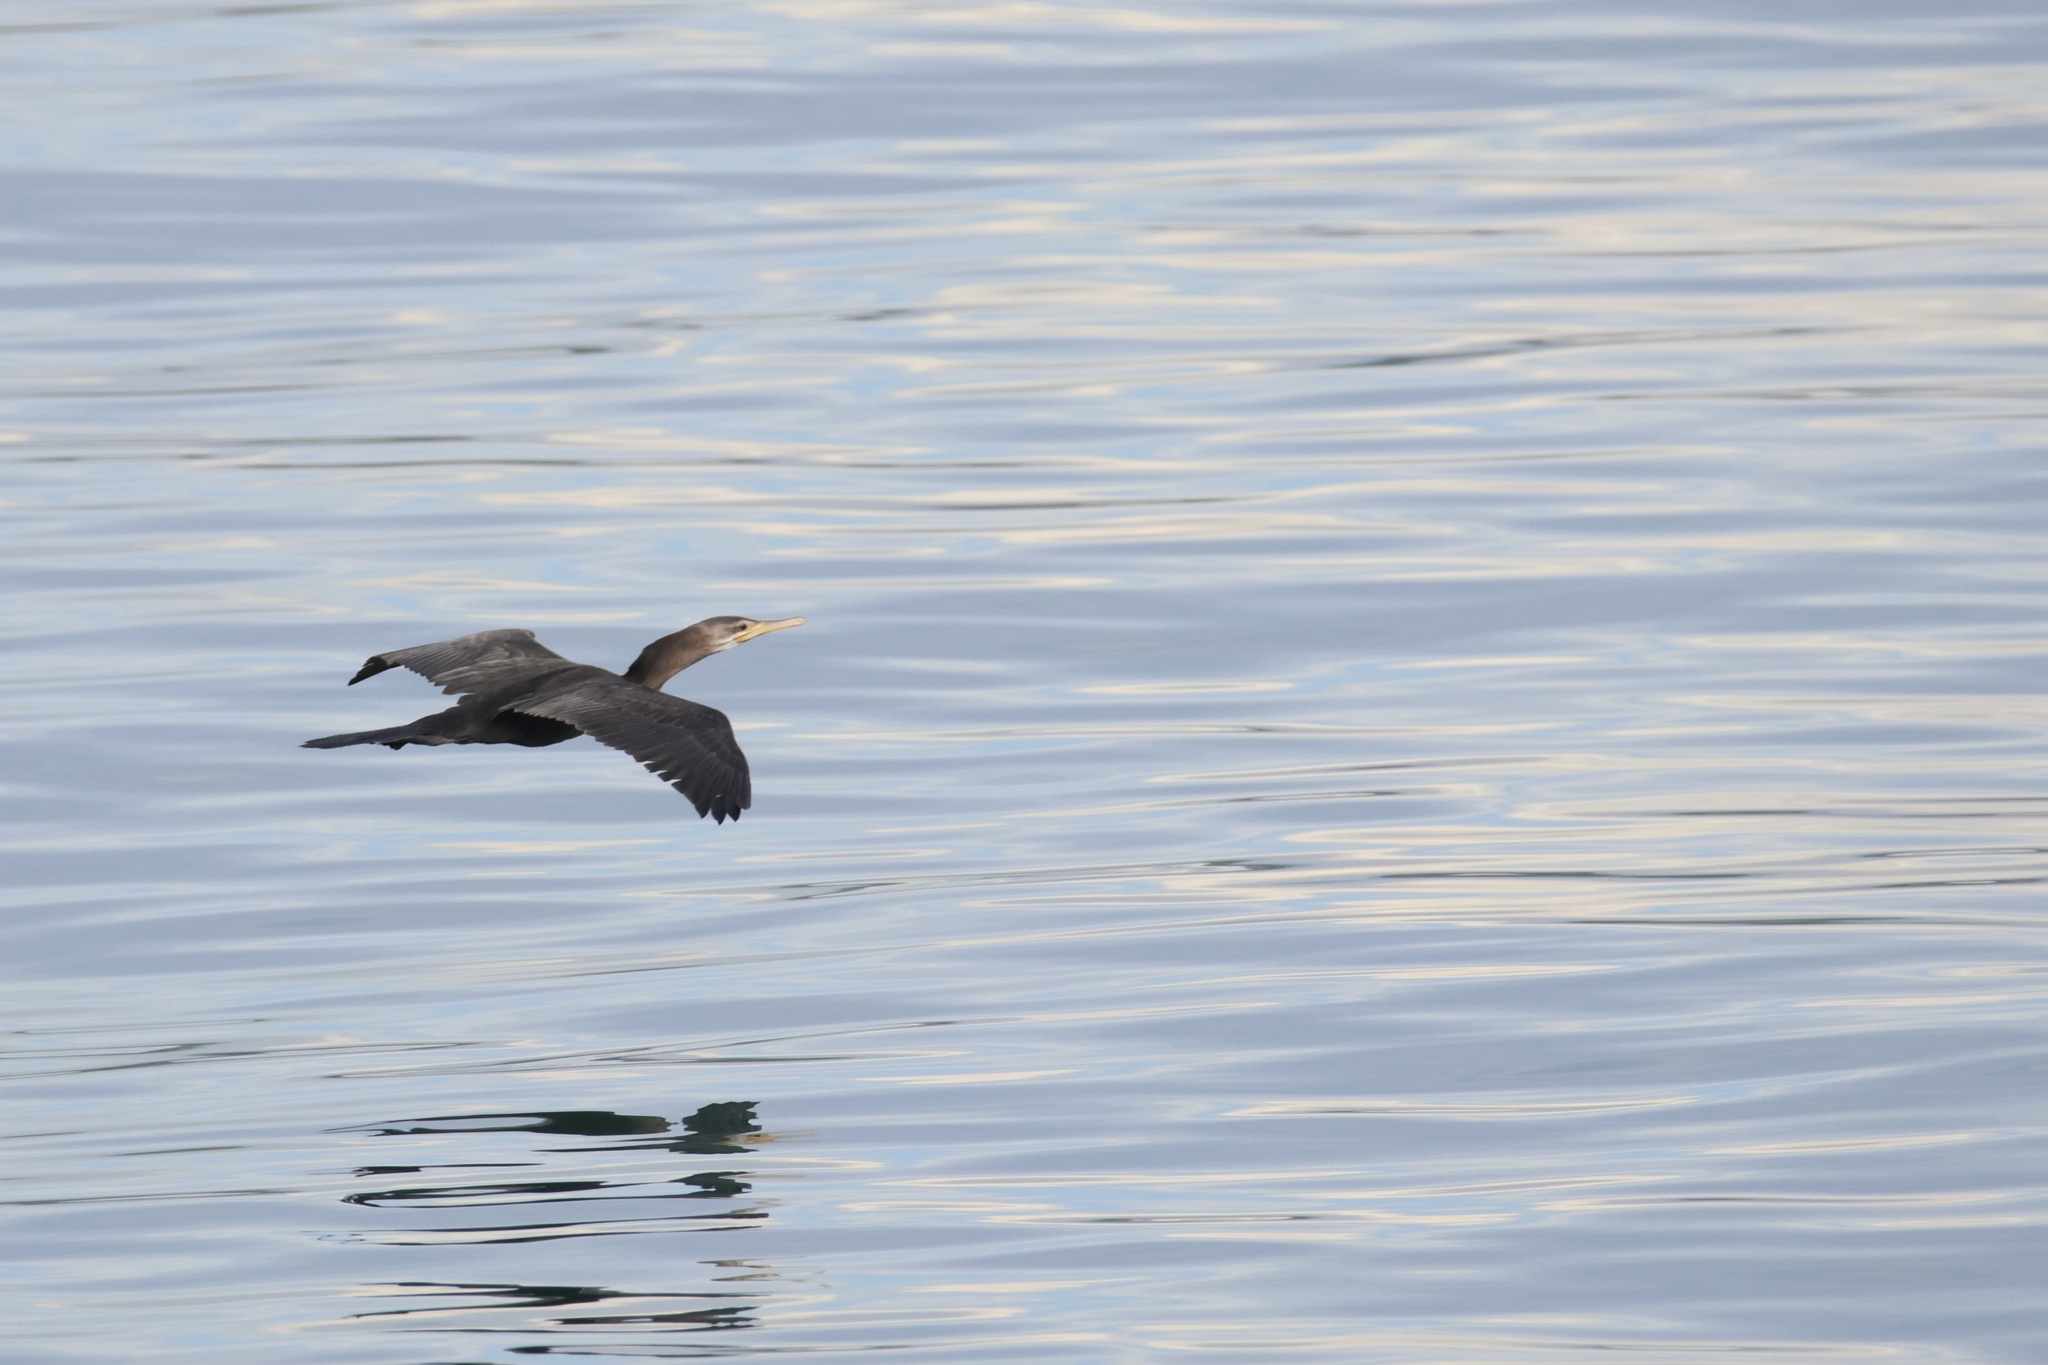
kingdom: Animalia
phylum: Chordata
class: Aves
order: Suliformes
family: Phalacrocoracidae
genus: Phalacrocorax
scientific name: Phalacrocorax brasilianus
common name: Neotropic cormorant
